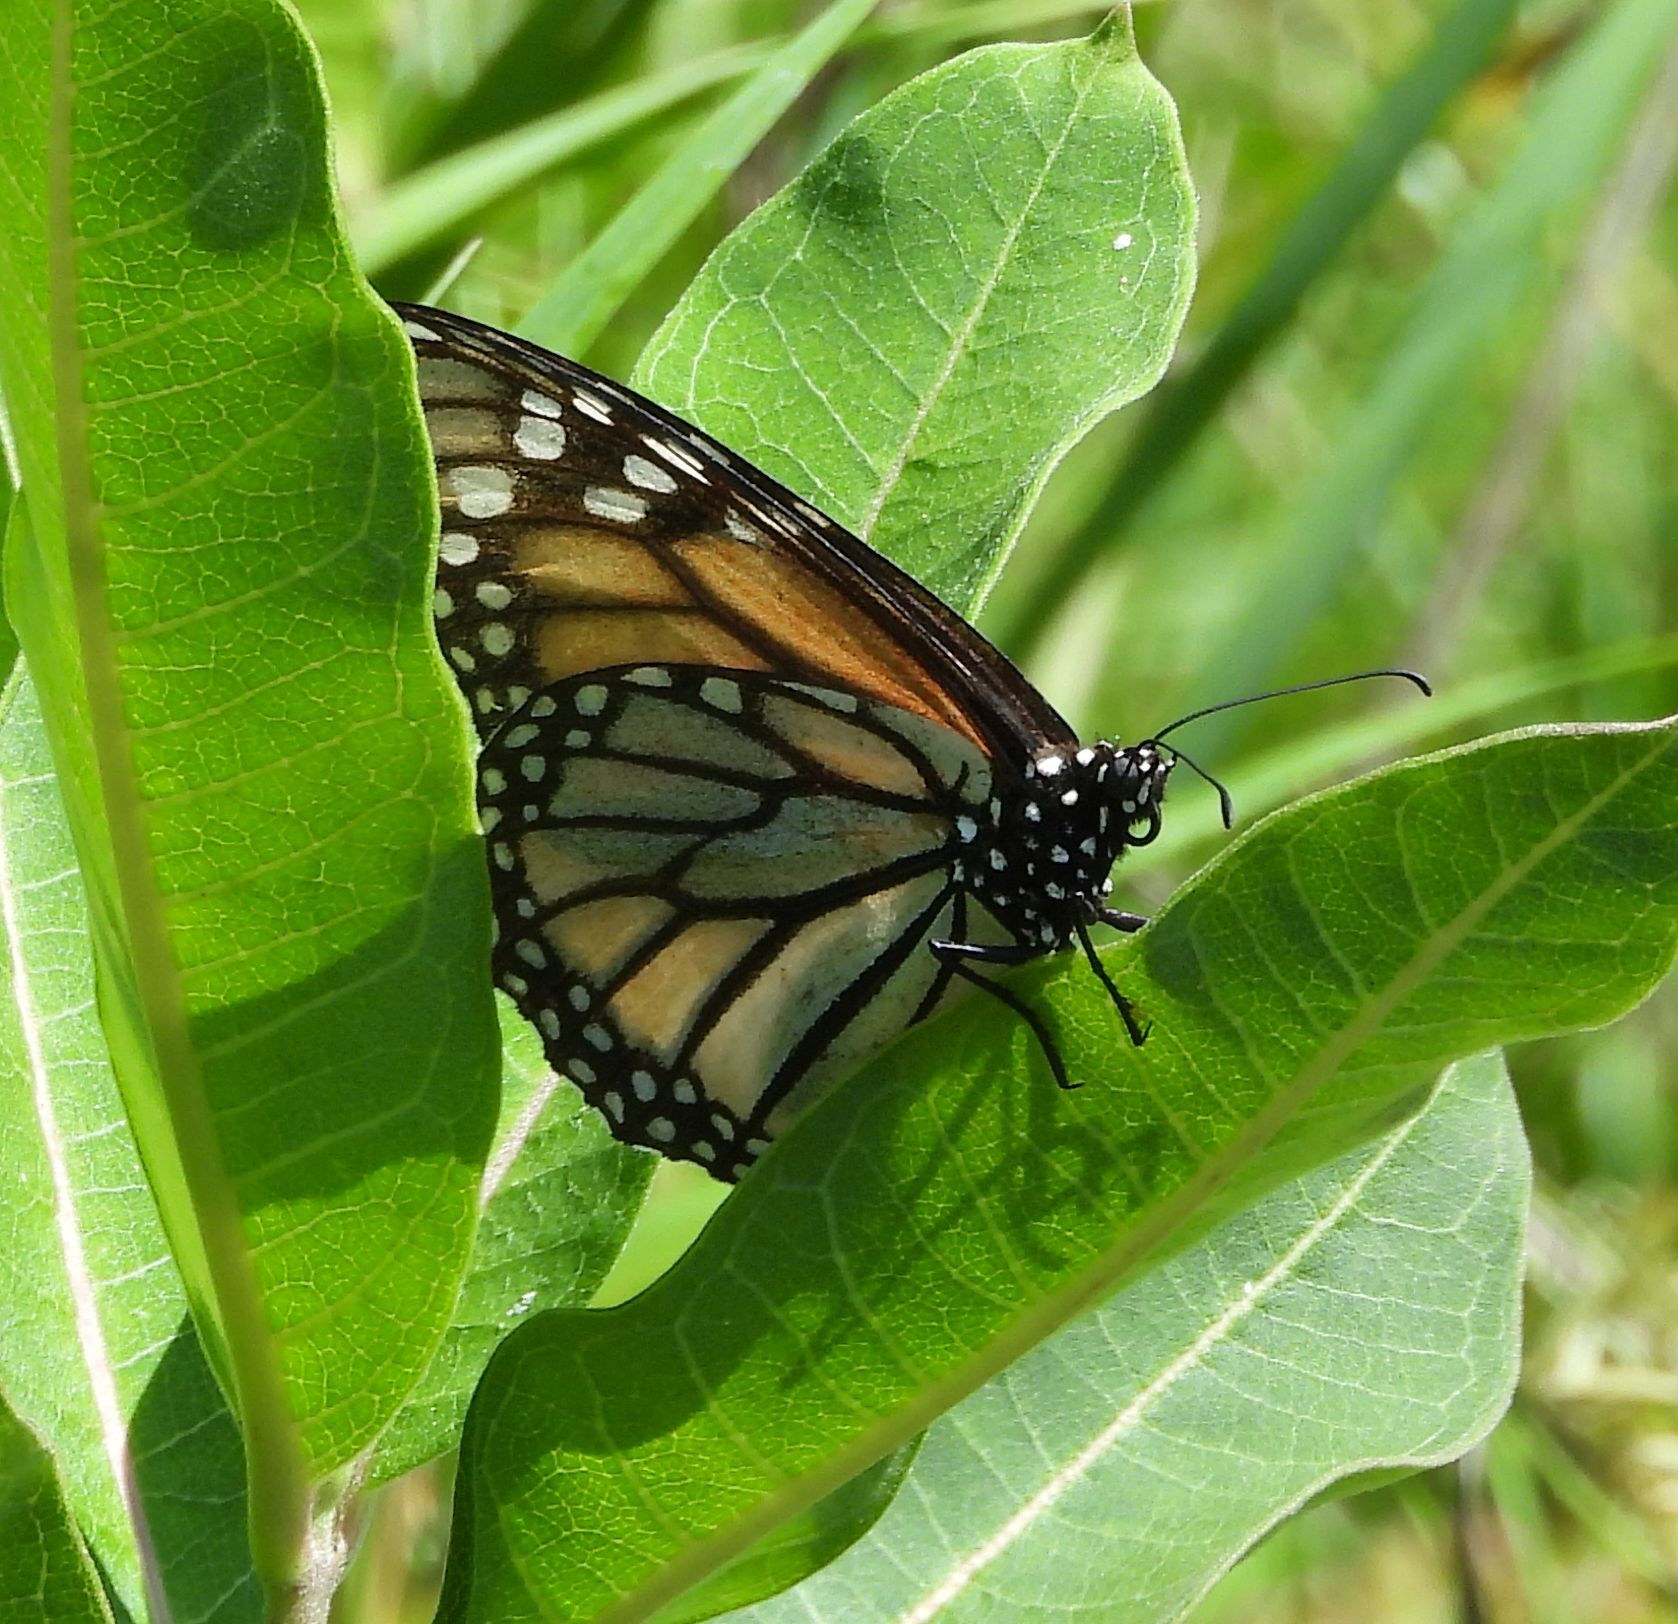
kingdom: Animalia
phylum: Arthropoda
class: Insecta
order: Lepidoptera
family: Nymphalidae
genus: Danaus
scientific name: Danaus plexippus
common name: Monarch
